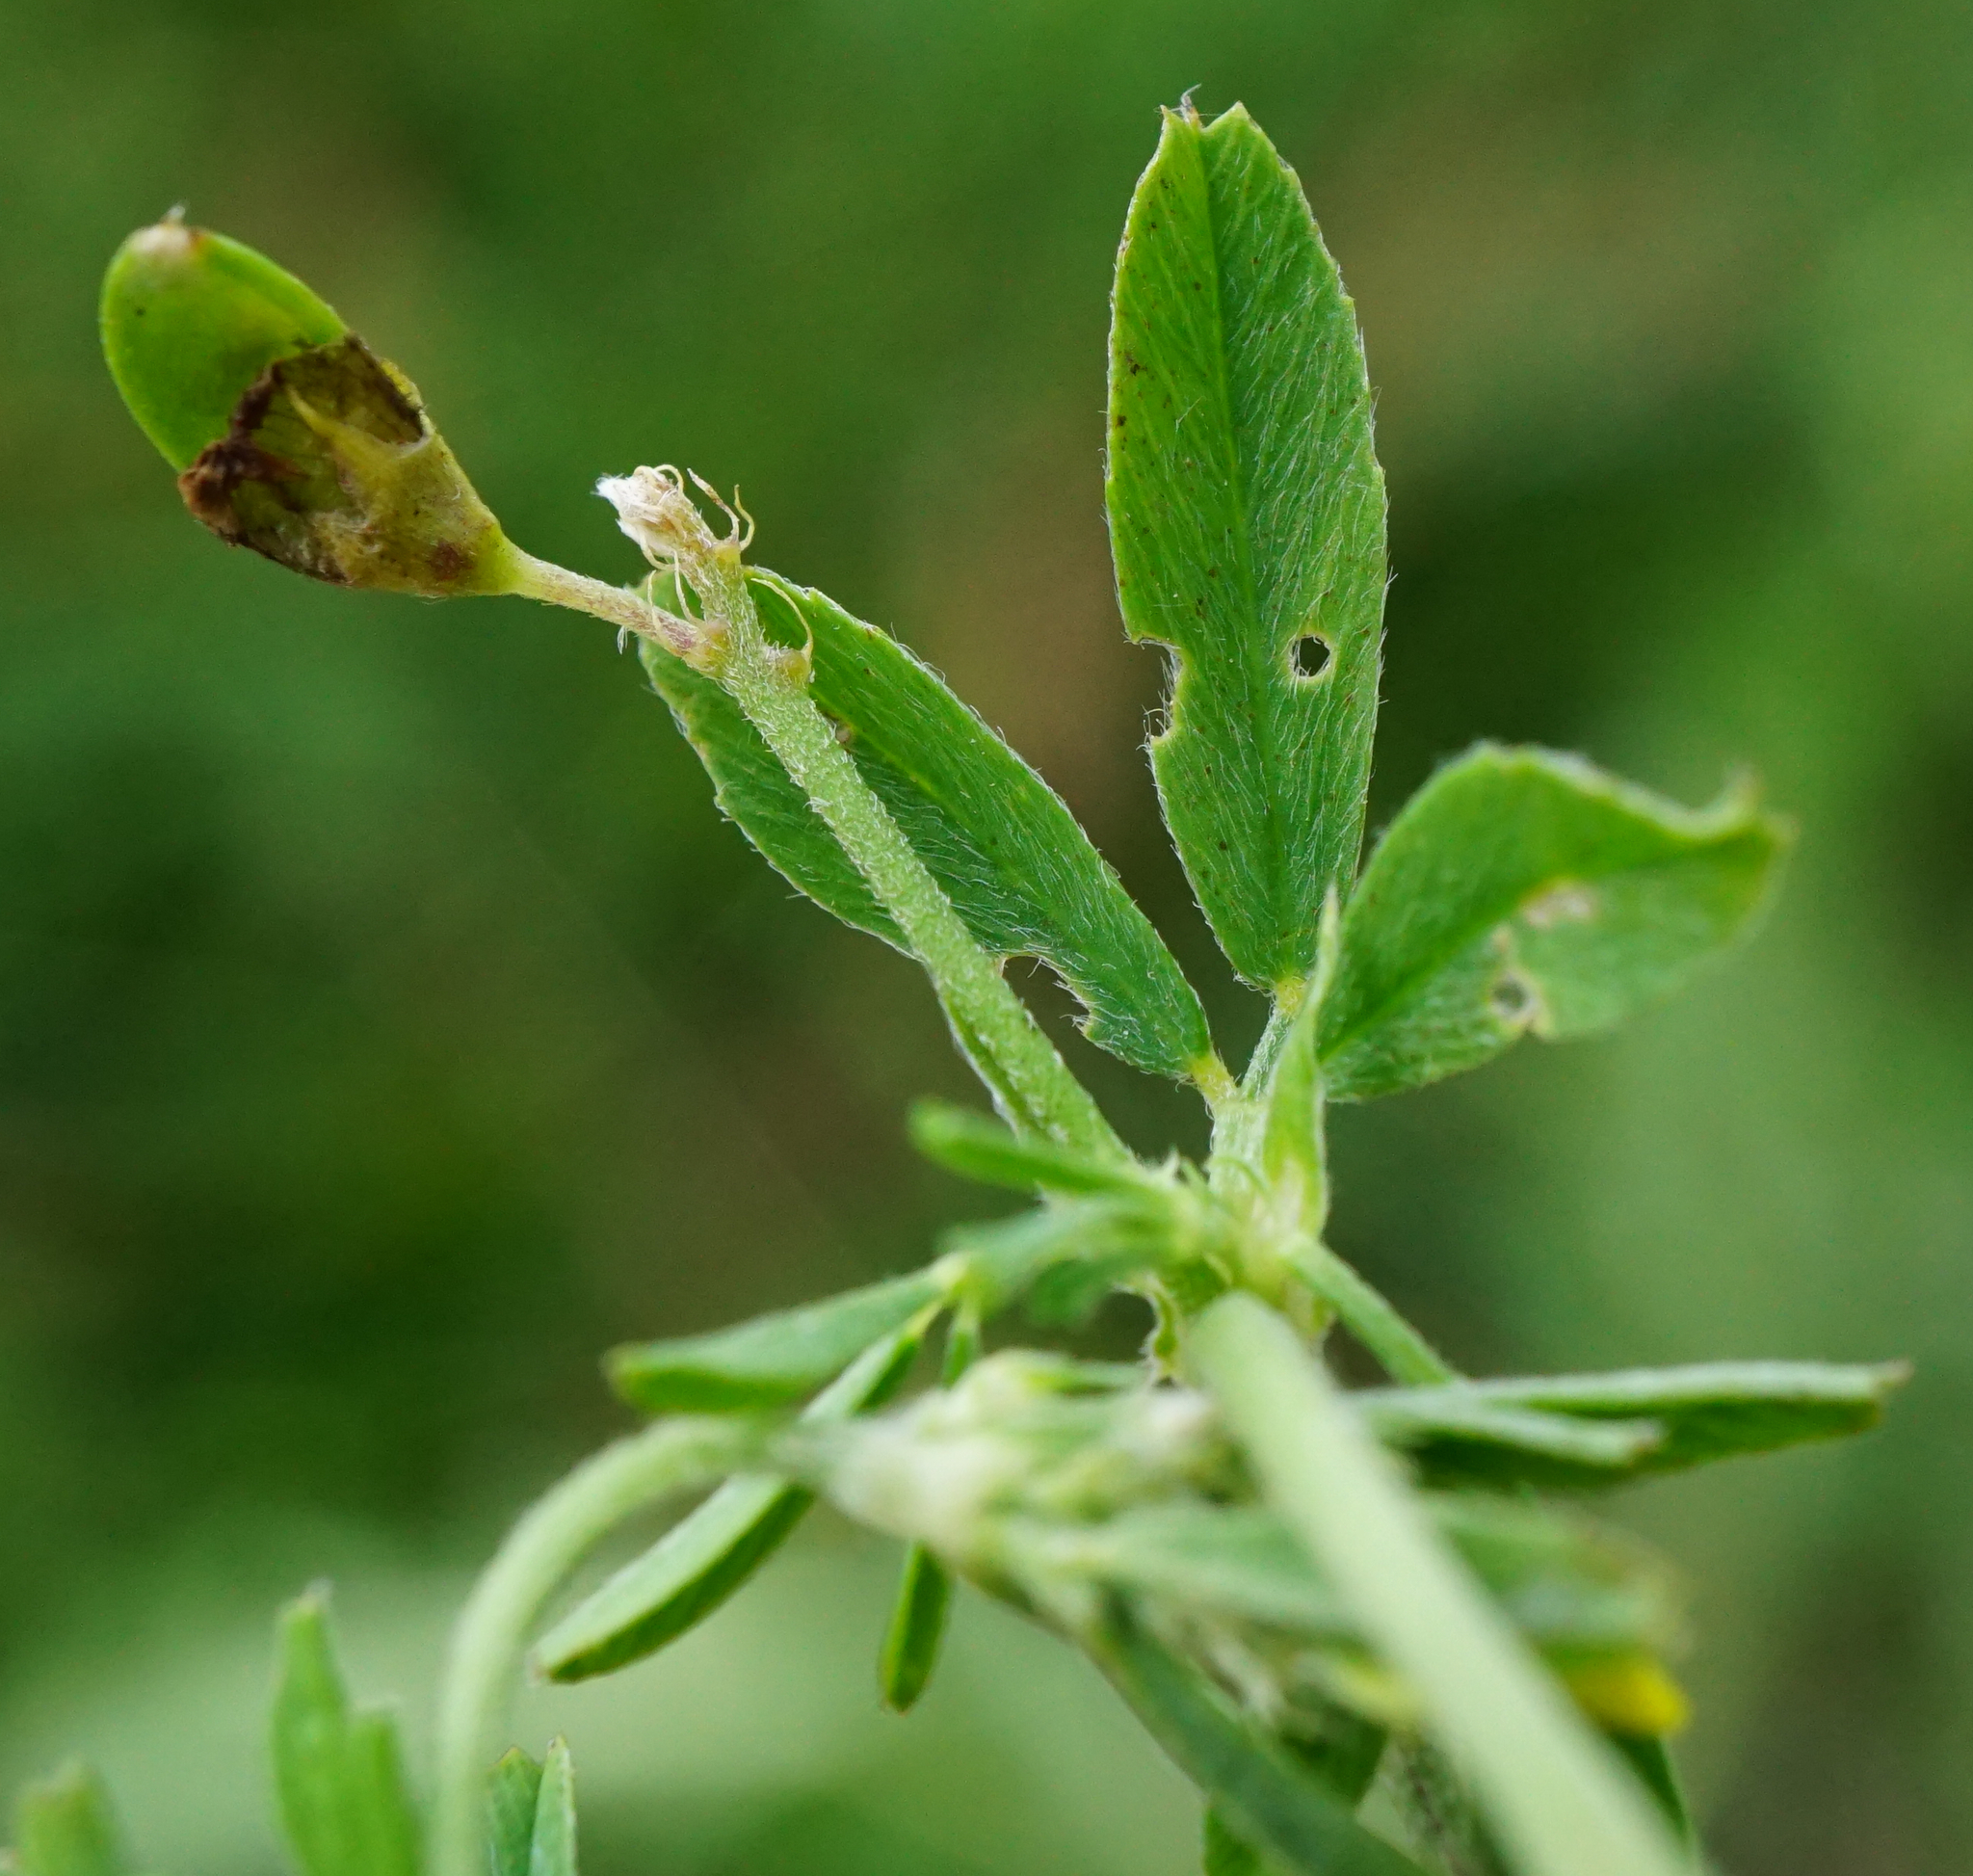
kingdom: Plantae
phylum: Tracheophyta
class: Magnoliopsida
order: Fabales
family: Fabaceae
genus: Medicago
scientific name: Medicago falcata
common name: Sickle medick
